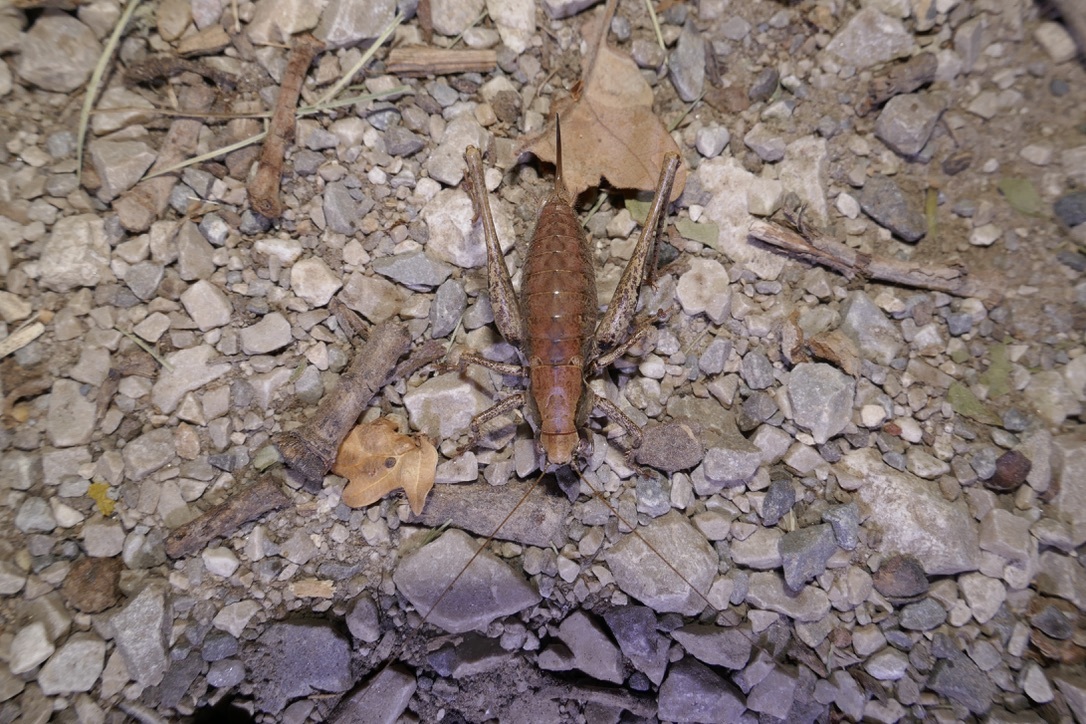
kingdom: Animalia
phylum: Arthropoda
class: Insecta
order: Orthoptera
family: Tettigoniidae
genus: Pholidoptera
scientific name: Pholidoptera griseoaptera
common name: Dark bush-cricket
